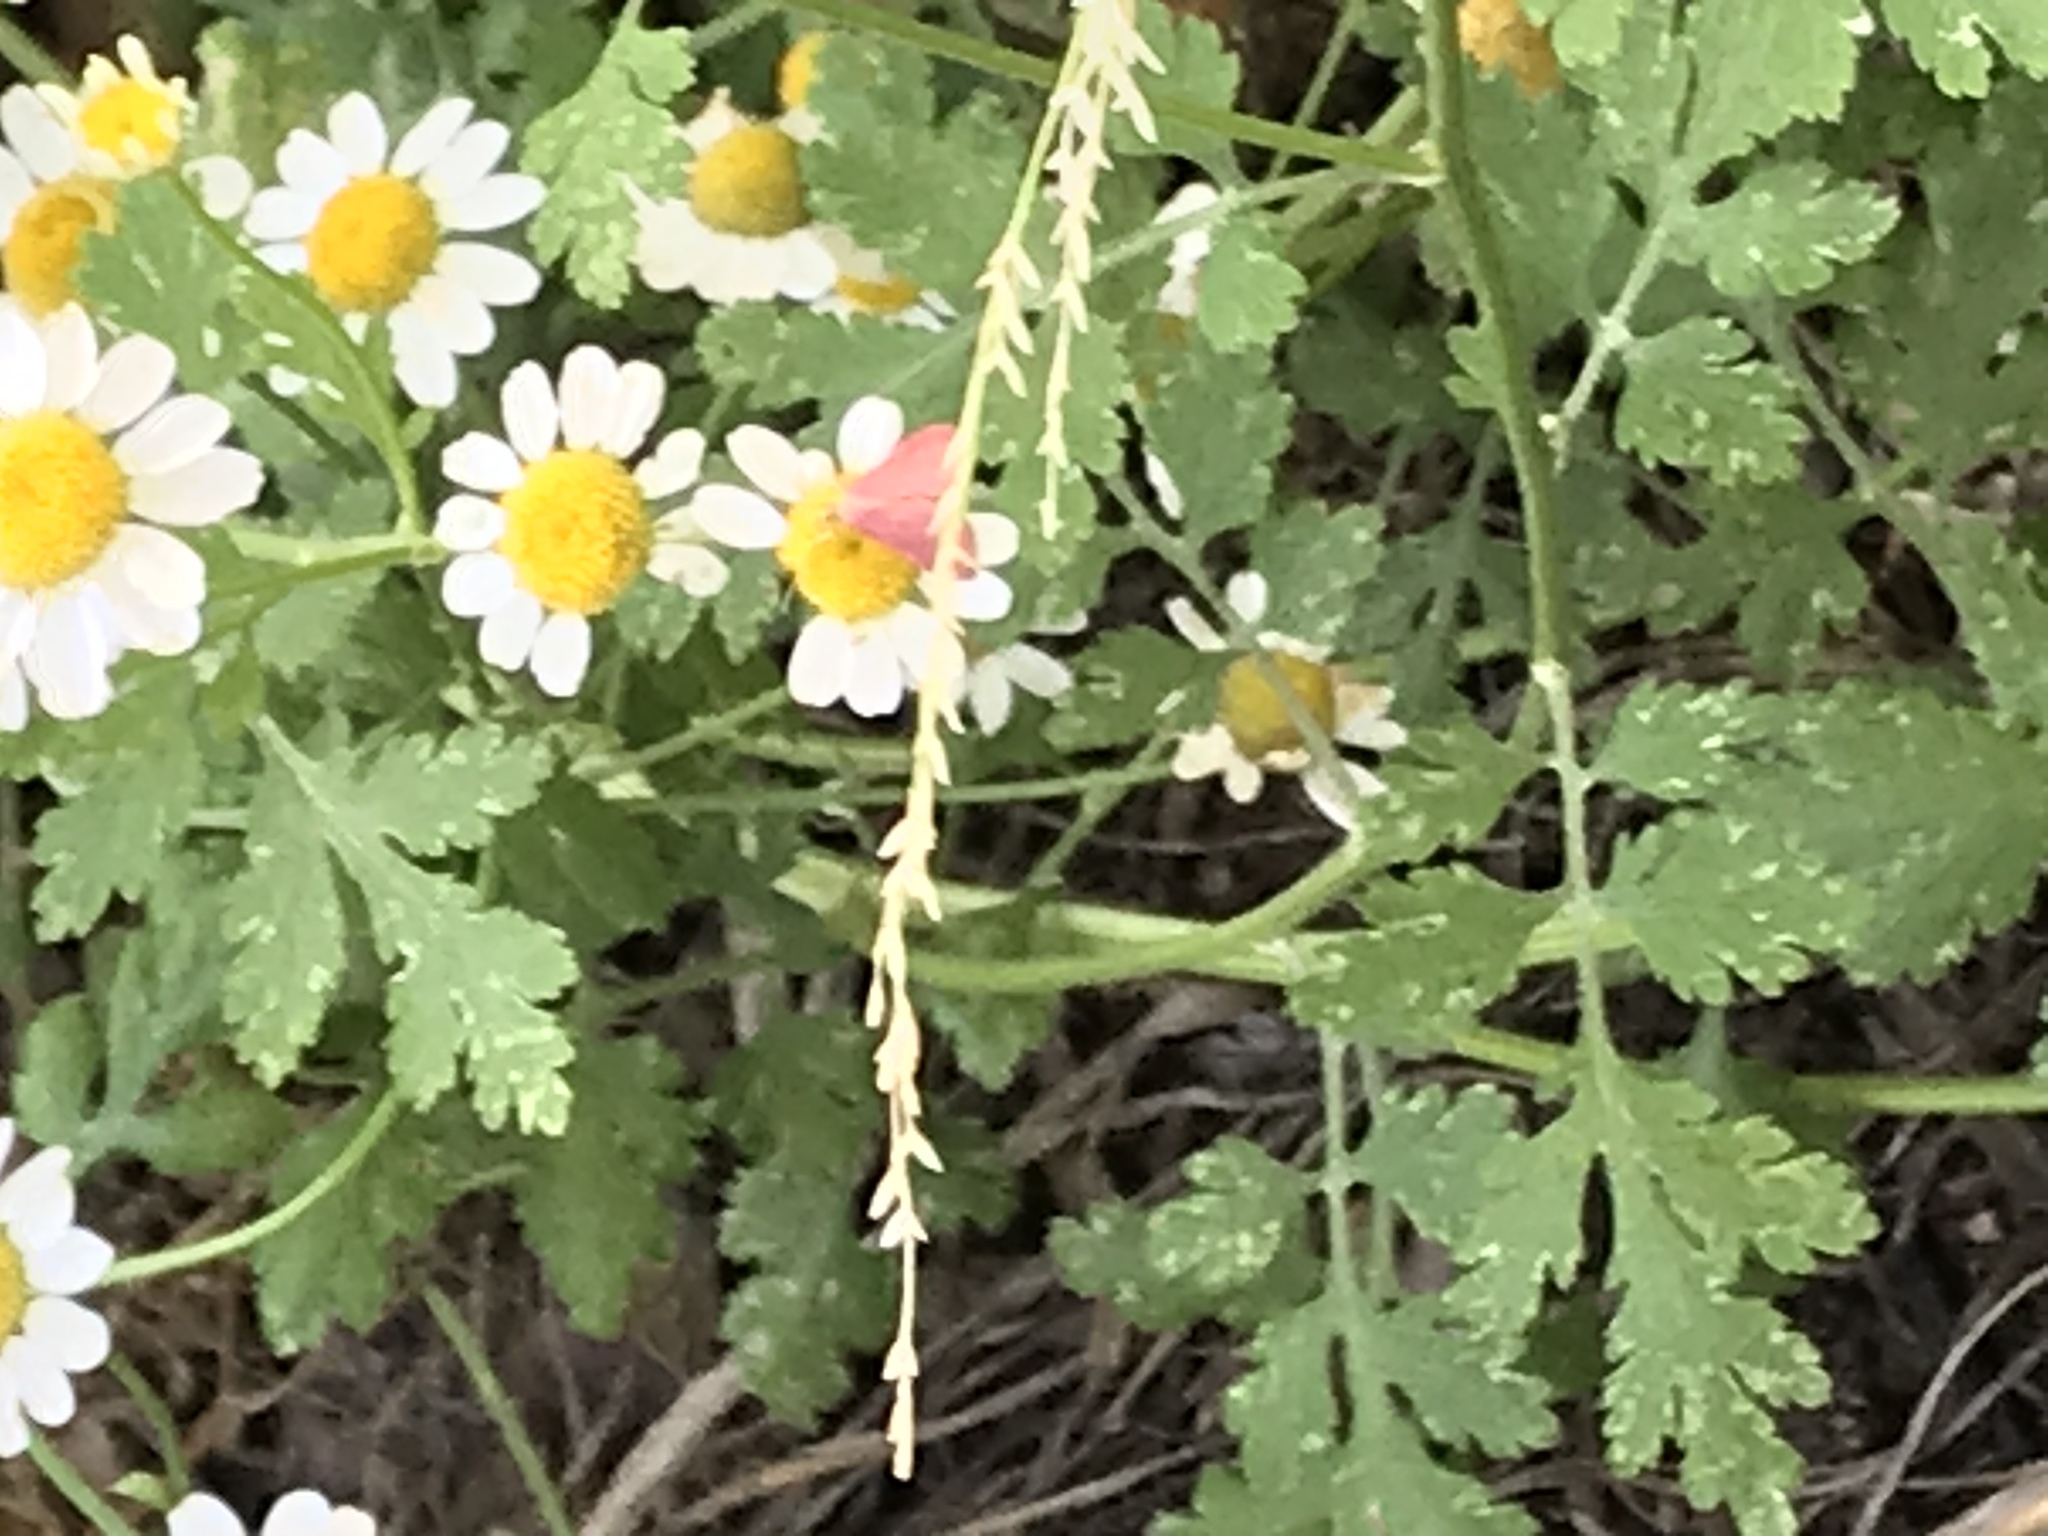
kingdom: Animalia
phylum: Arthropoda
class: Insecta
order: Lepidoptera
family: Crambidae
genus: Pyrausta
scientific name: Pyrausta inornatalis
